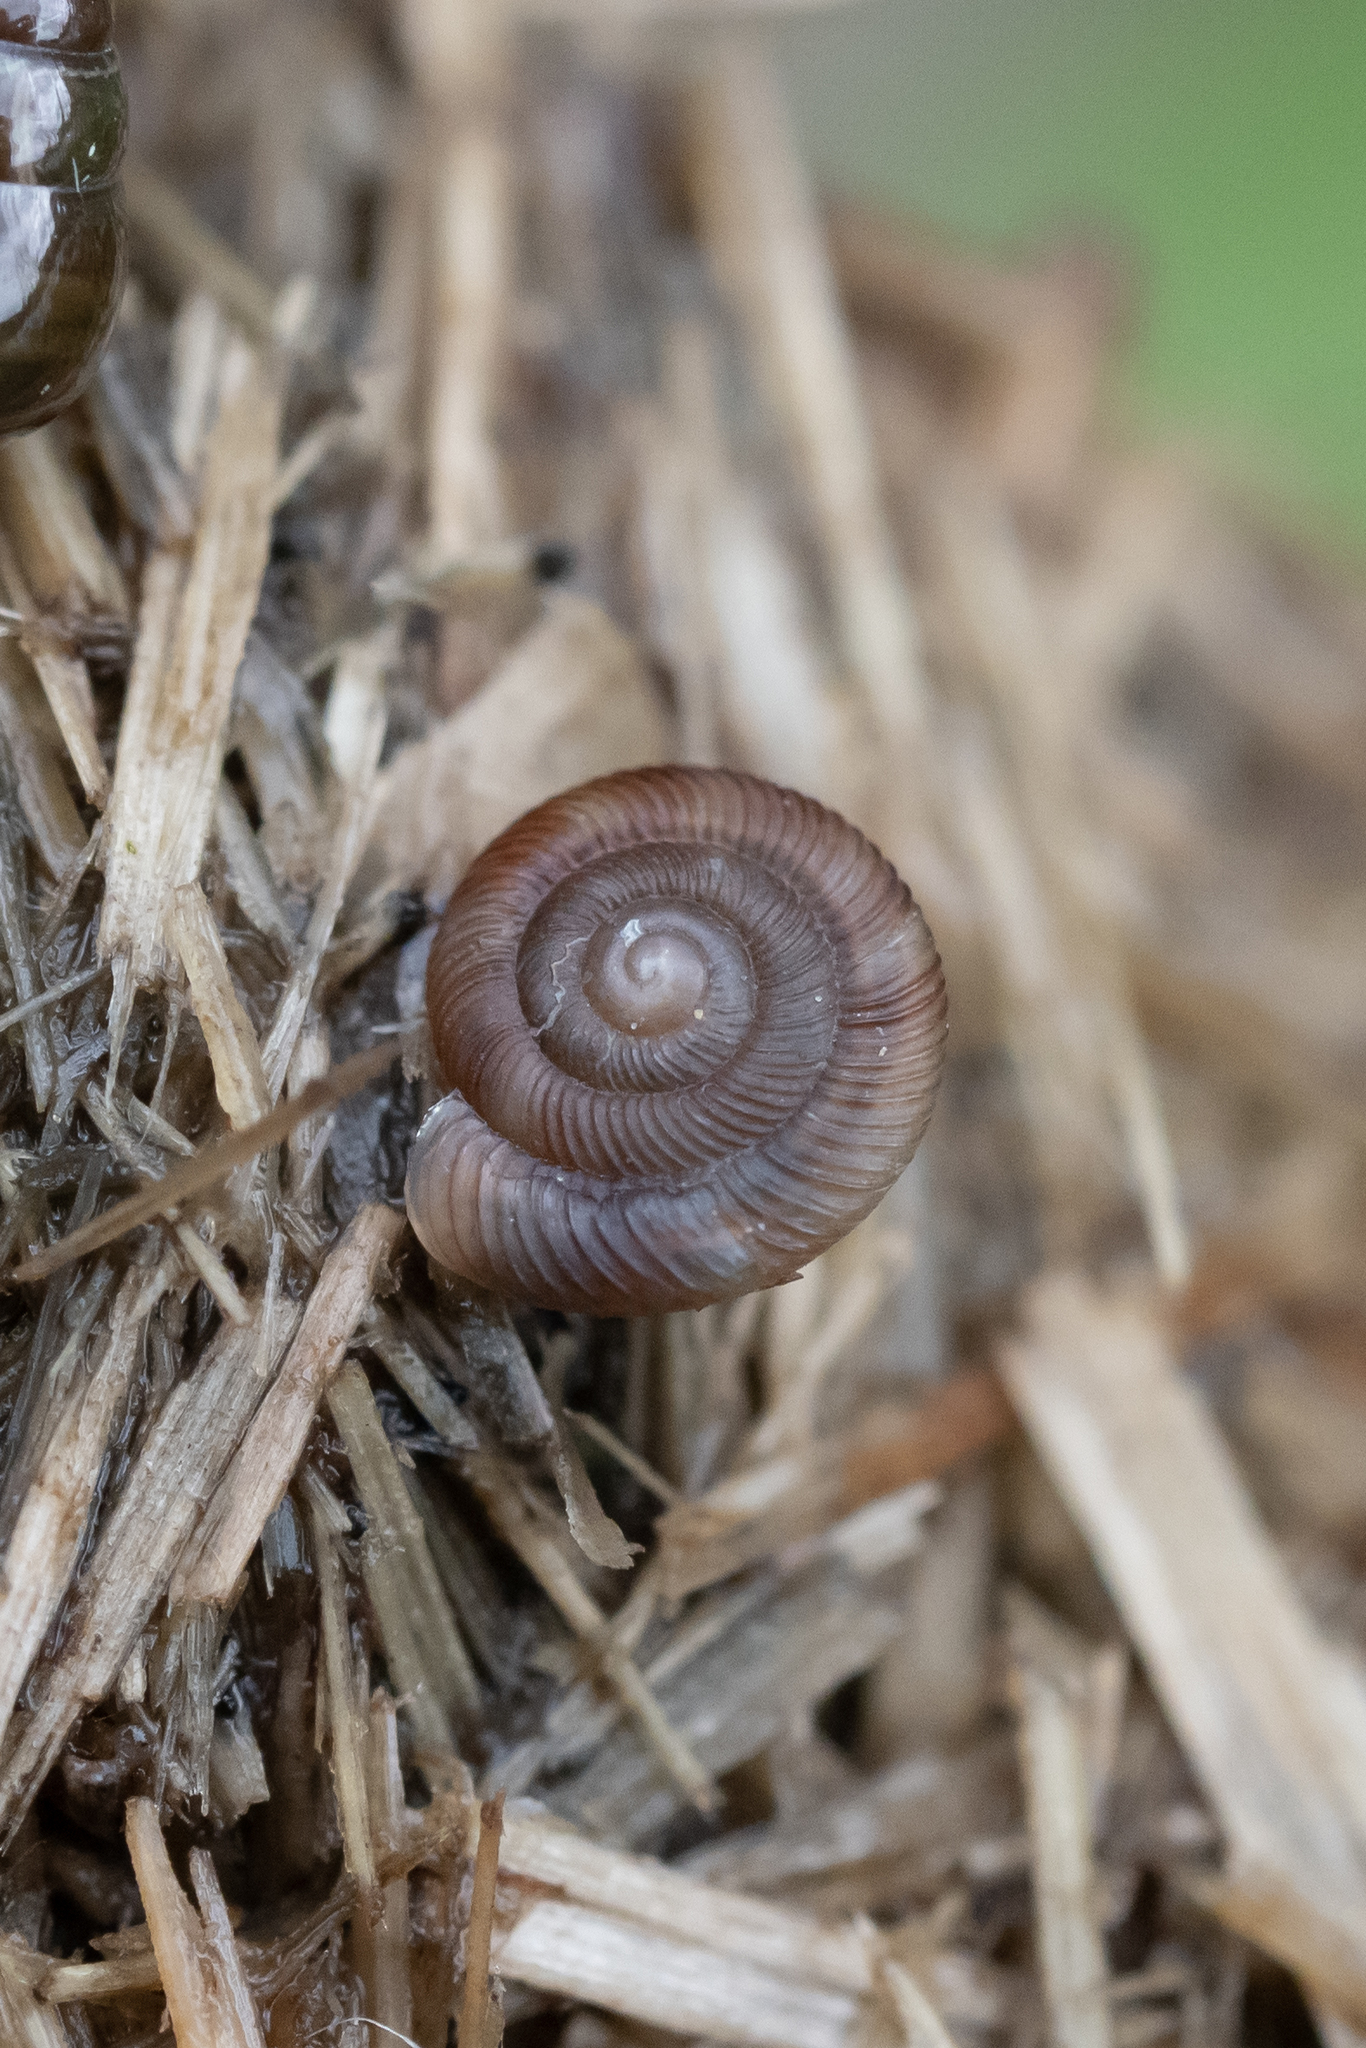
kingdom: Animalia
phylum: Mollusca
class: Gastropoda
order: Stylommatophora
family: Discidae
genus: Discus
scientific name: Discus rotundatus
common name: Rounded snail
